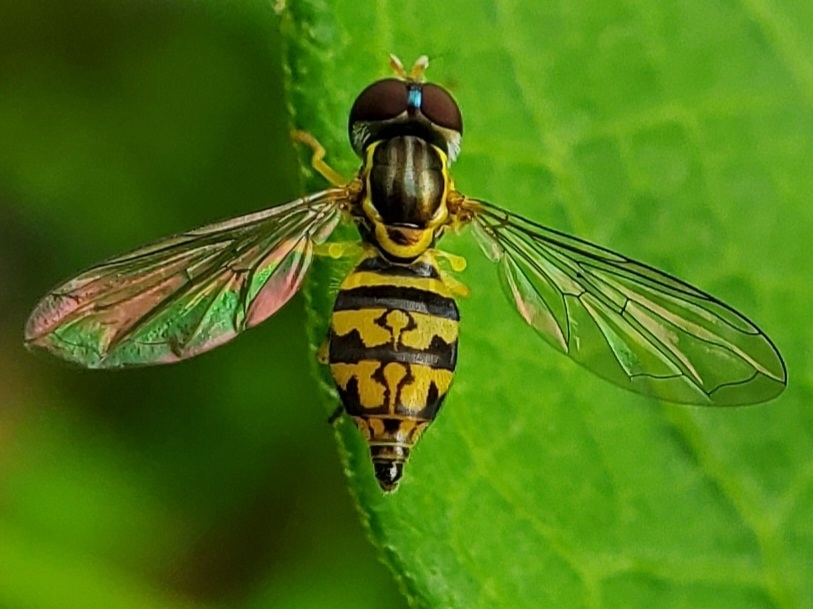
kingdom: Animalia
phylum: Arthropoda
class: Insecta
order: Diptera
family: Syrphidae
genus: Toxomerus
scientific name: Toxomerus geminatus
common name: Eastern calligrapher
